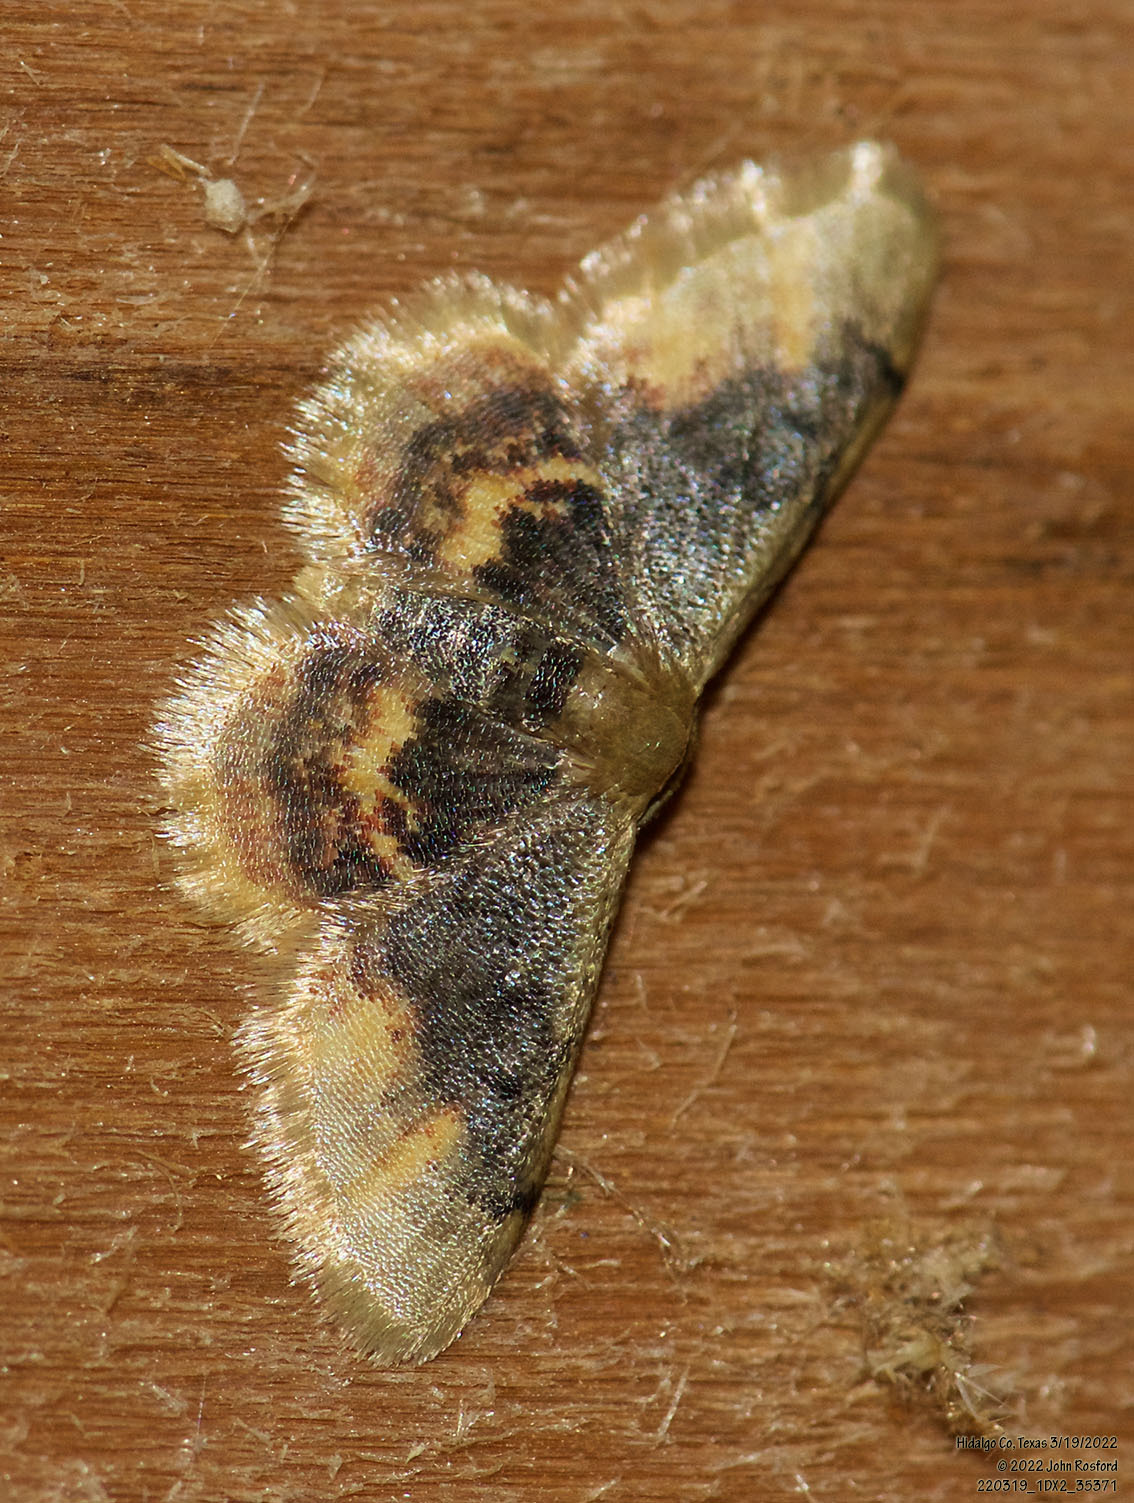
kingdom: Animalia
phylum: Arthropoda
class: Insecta
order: Lepidoptera
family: Geometridae
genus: Idaea
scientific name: Idaea scintillularia
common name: Diminutive wave
